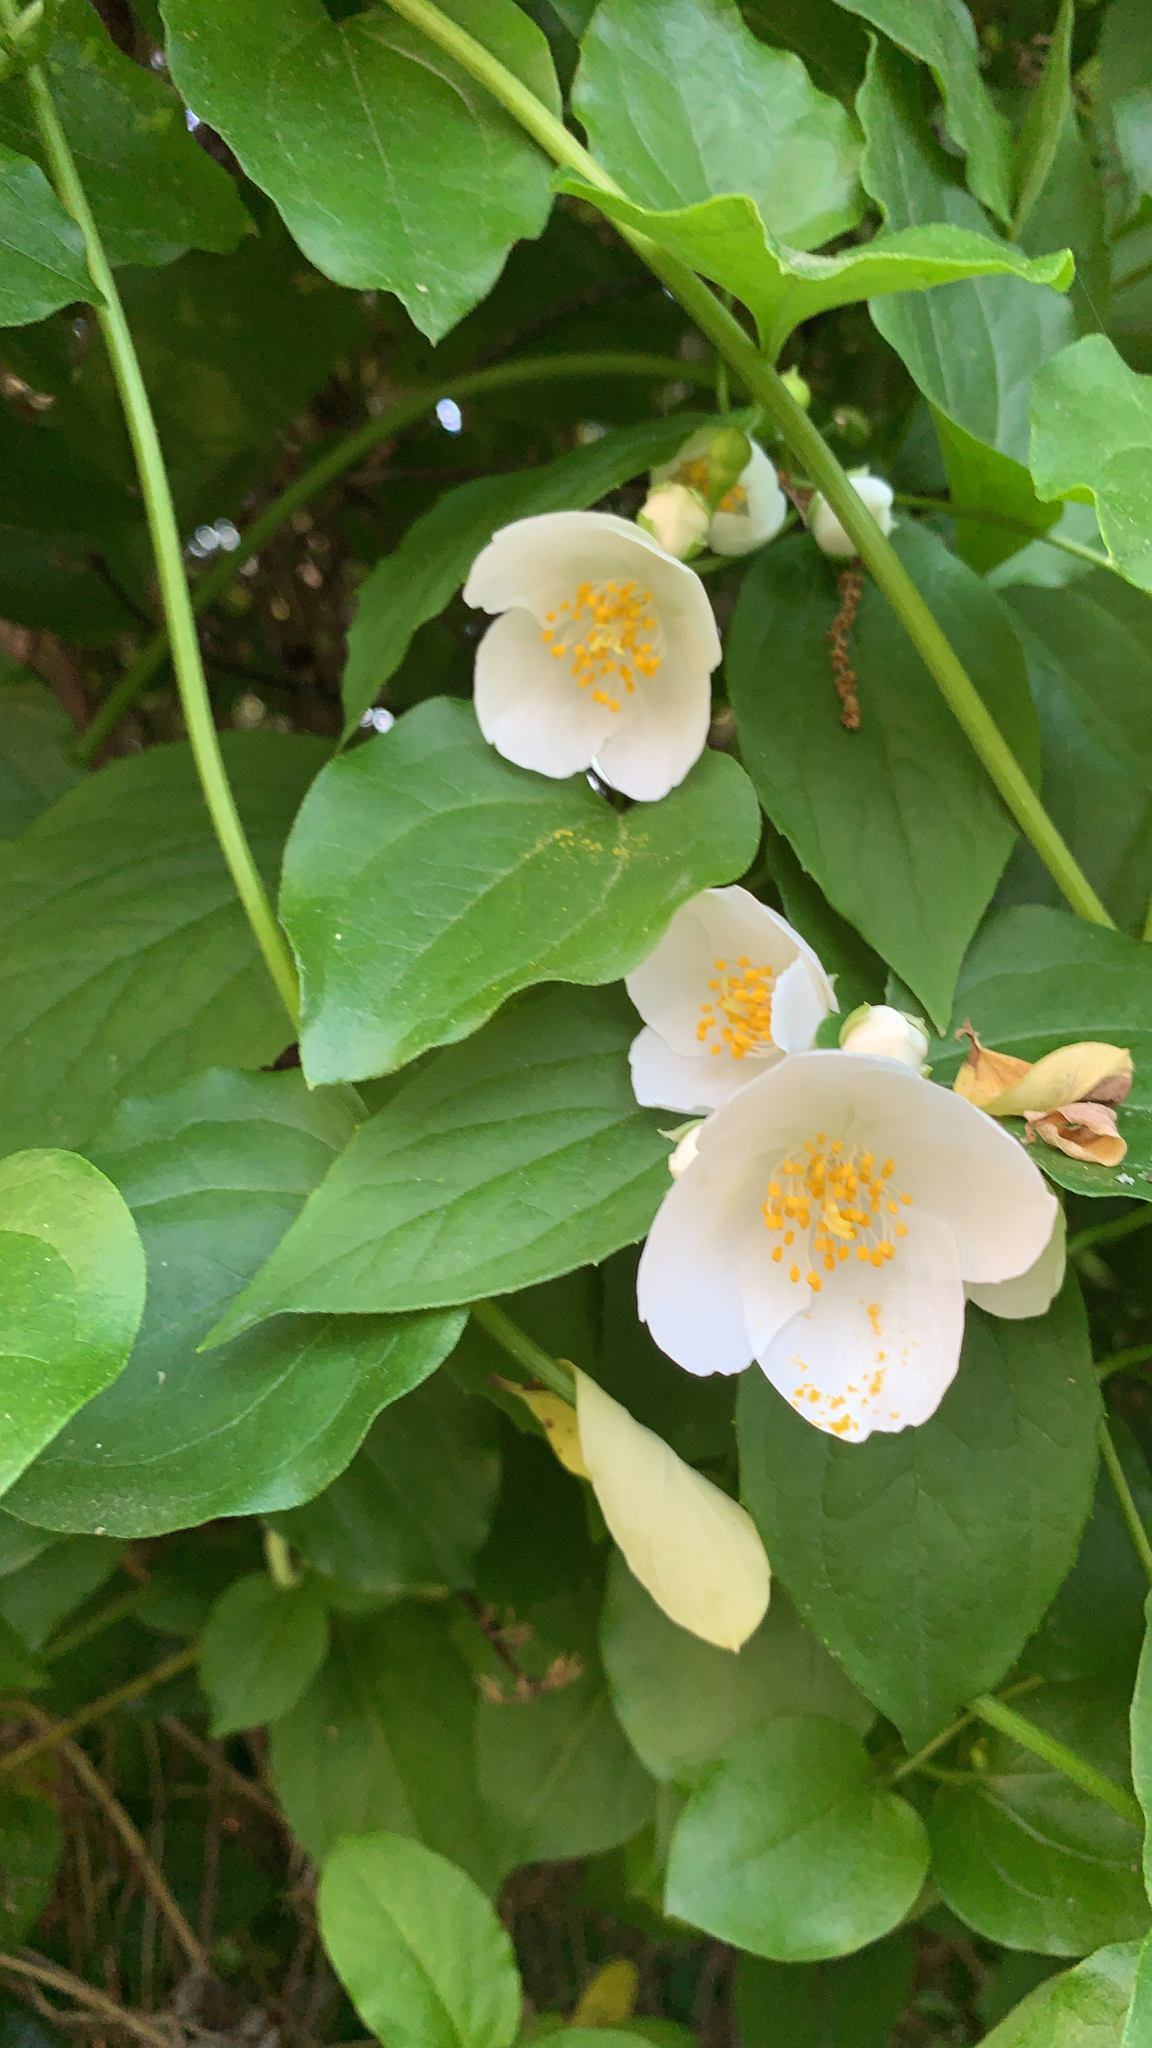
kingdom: Plantae
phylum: Tracheophyta
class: Magnoliopsida
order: Cornales
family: Hydrangeaceae
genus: Philadelphus
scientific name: Philadelphus coronarius
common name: Mock orange
